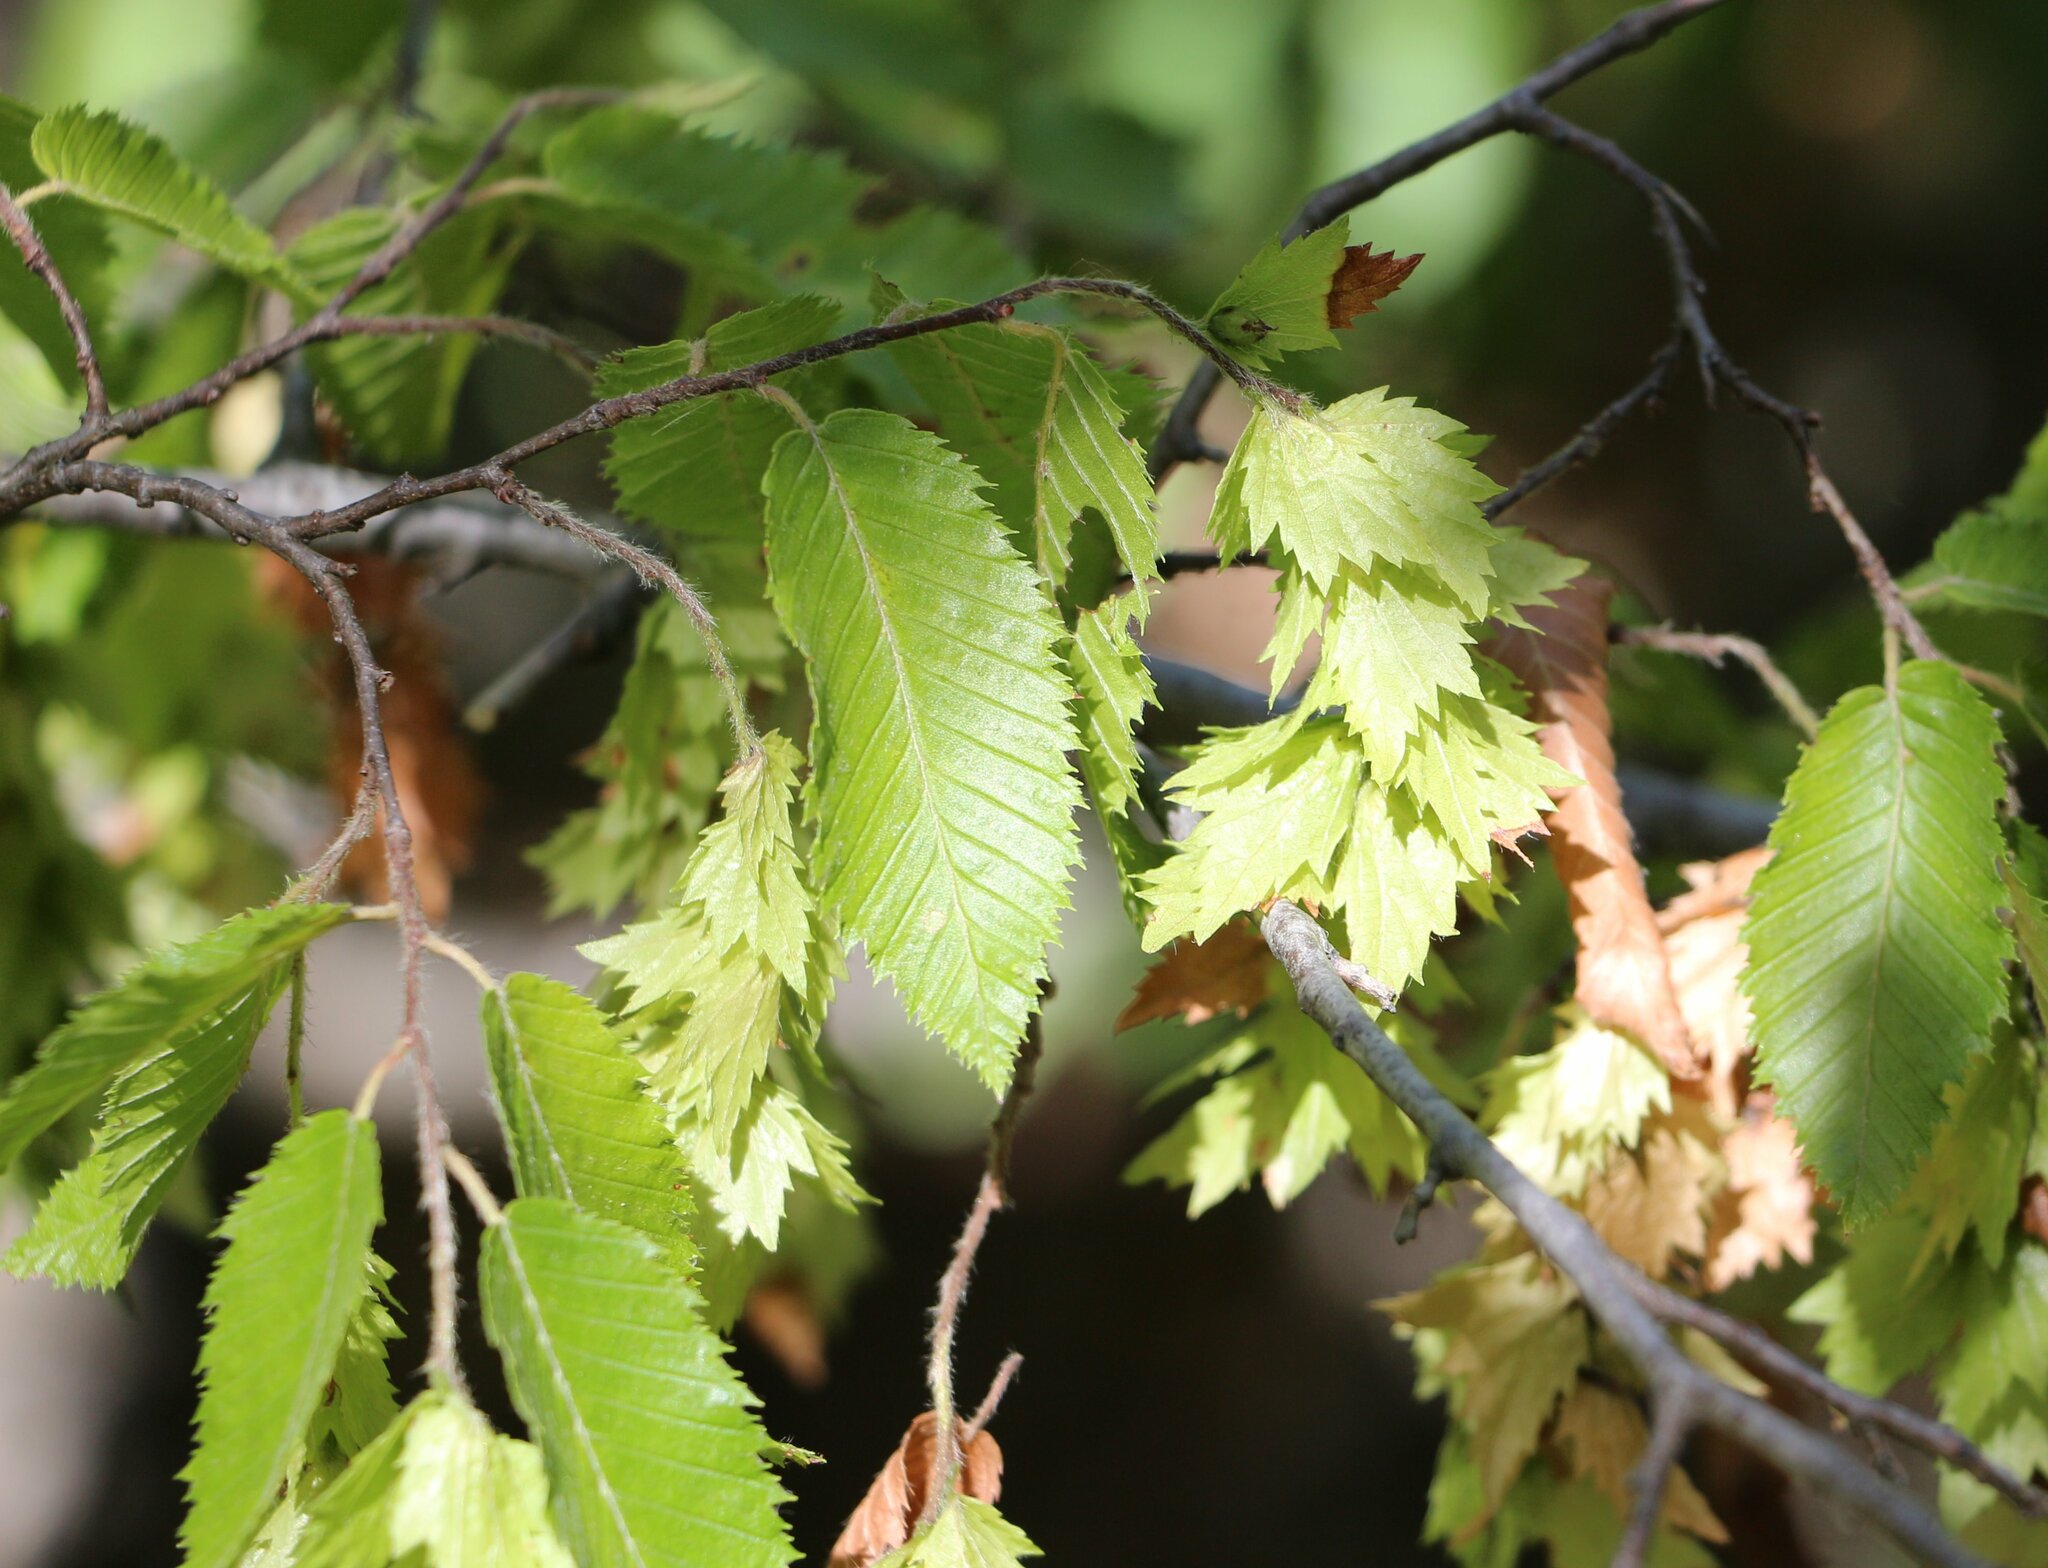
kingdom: Plantae
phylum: Tracheophyta
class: Magnoliopsida
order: Fagales
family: Betulaceae
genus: Carpinus
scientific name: Carpinus orientalis
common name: Eastern hornbeam
